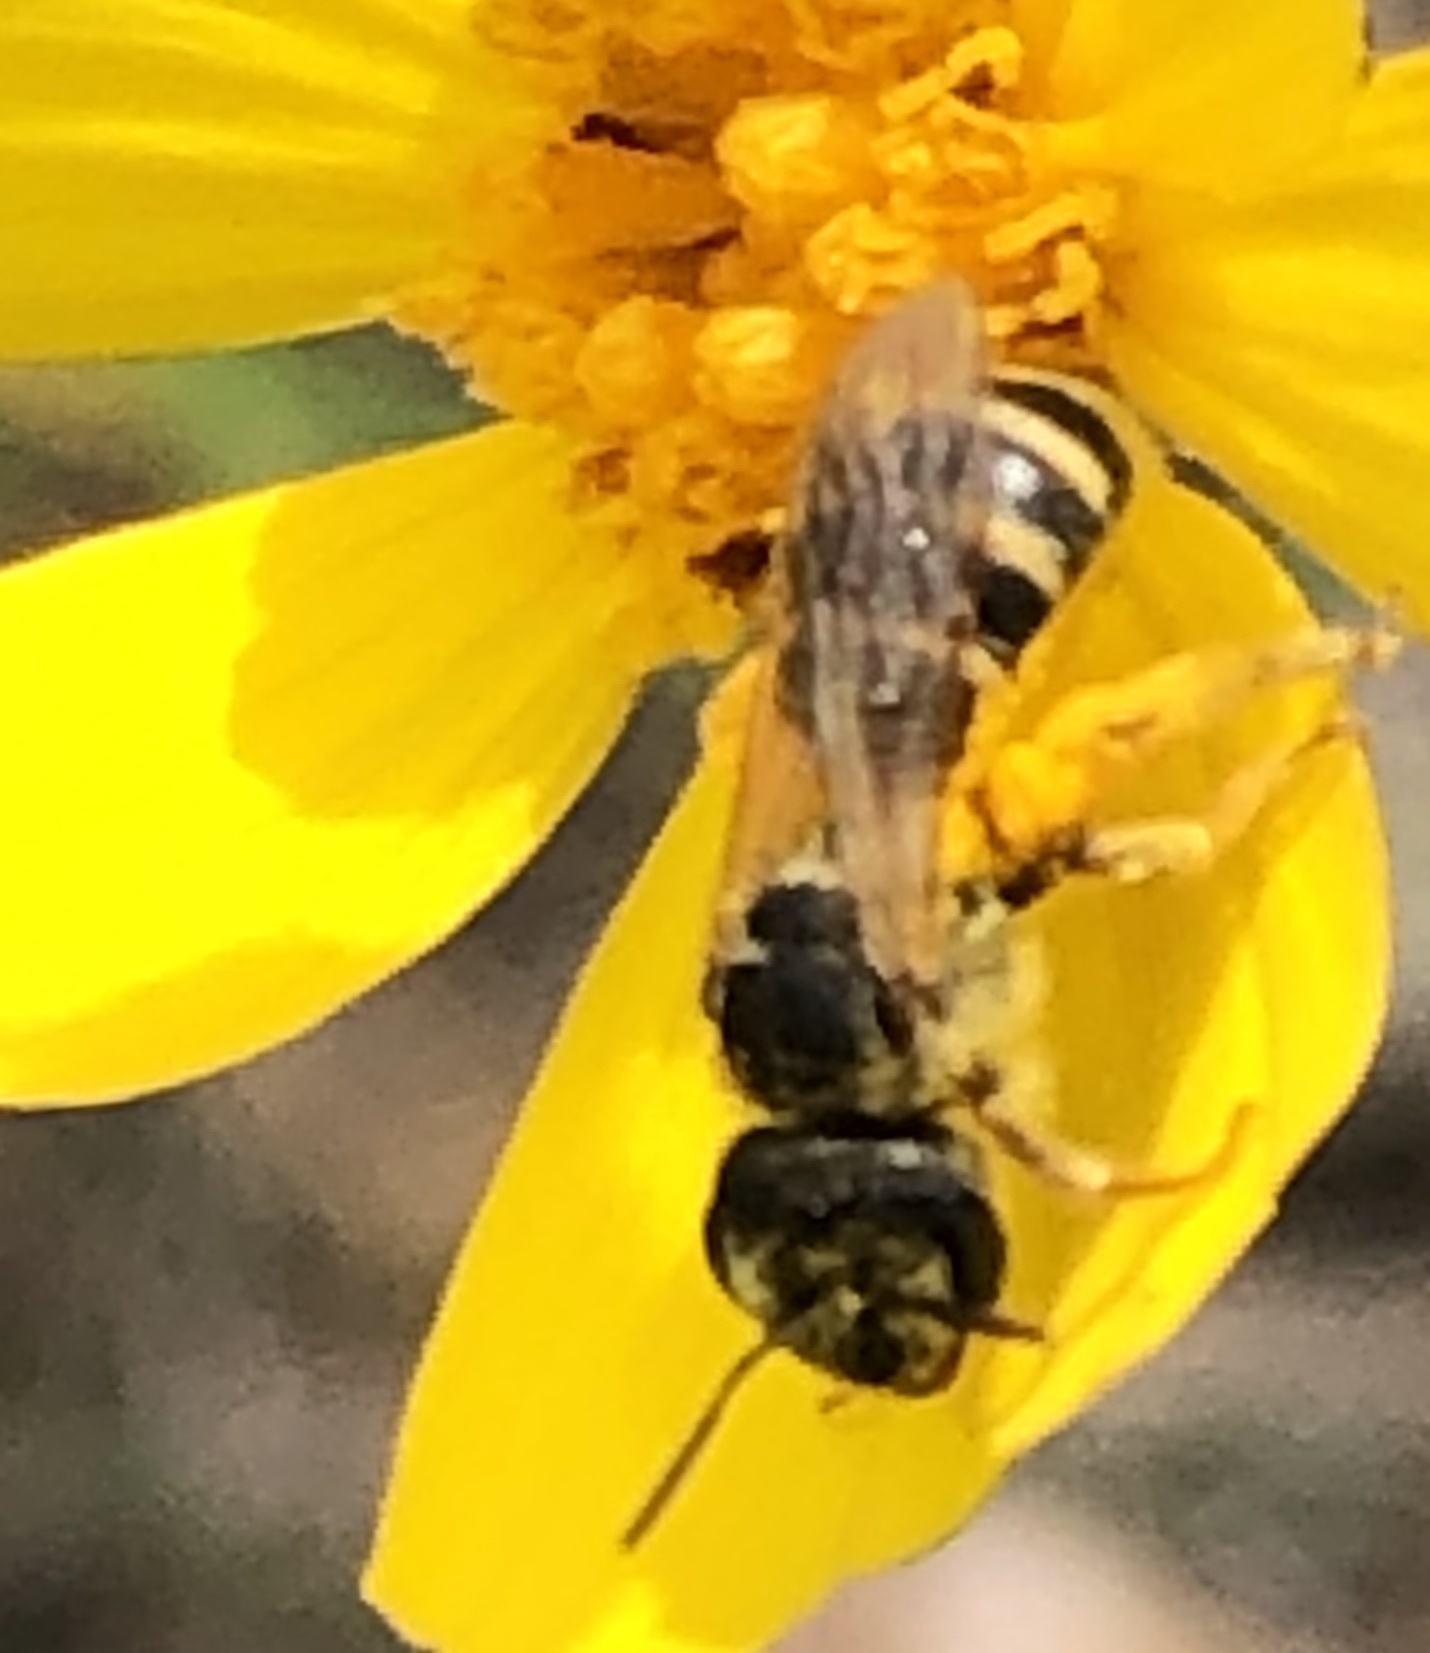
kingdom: Animalia
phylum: Arthropoda
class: Insecta
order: Hymenoptera
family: Halictidae
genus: Halictus
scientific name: Halictus ligatus
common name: Ligated furrow bee
